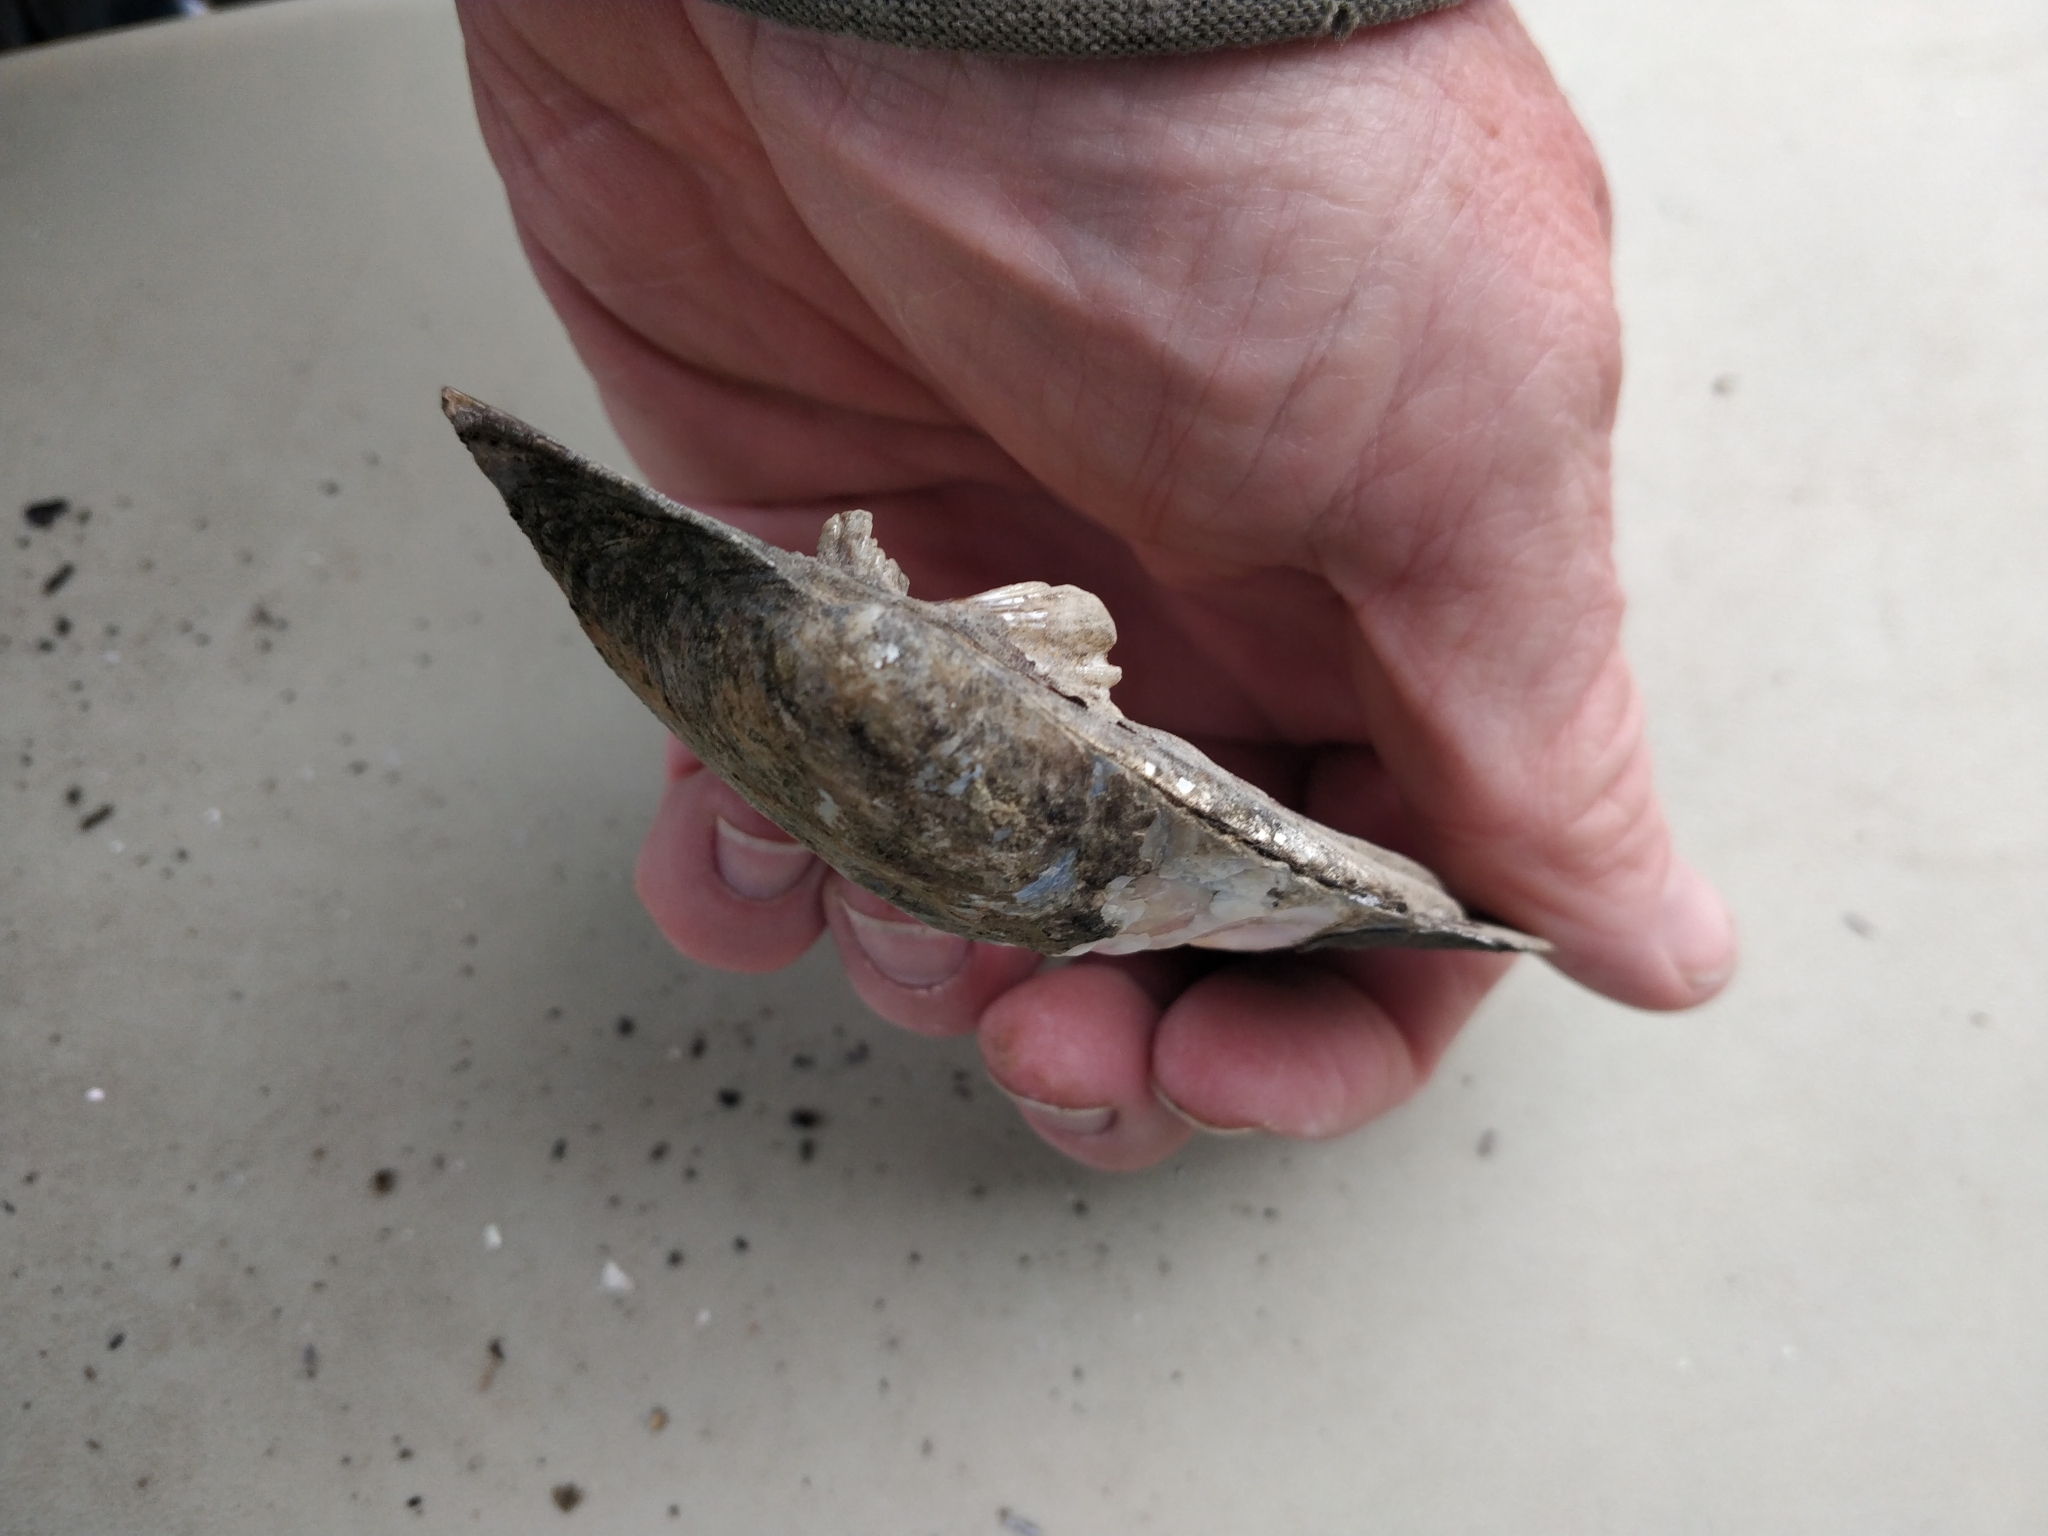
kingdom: Animalia
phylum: Mollusca
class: Bivalvia
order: Unionida
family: Unionidae
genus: Amblema
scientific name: Amblema plicata
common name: Threeridge
